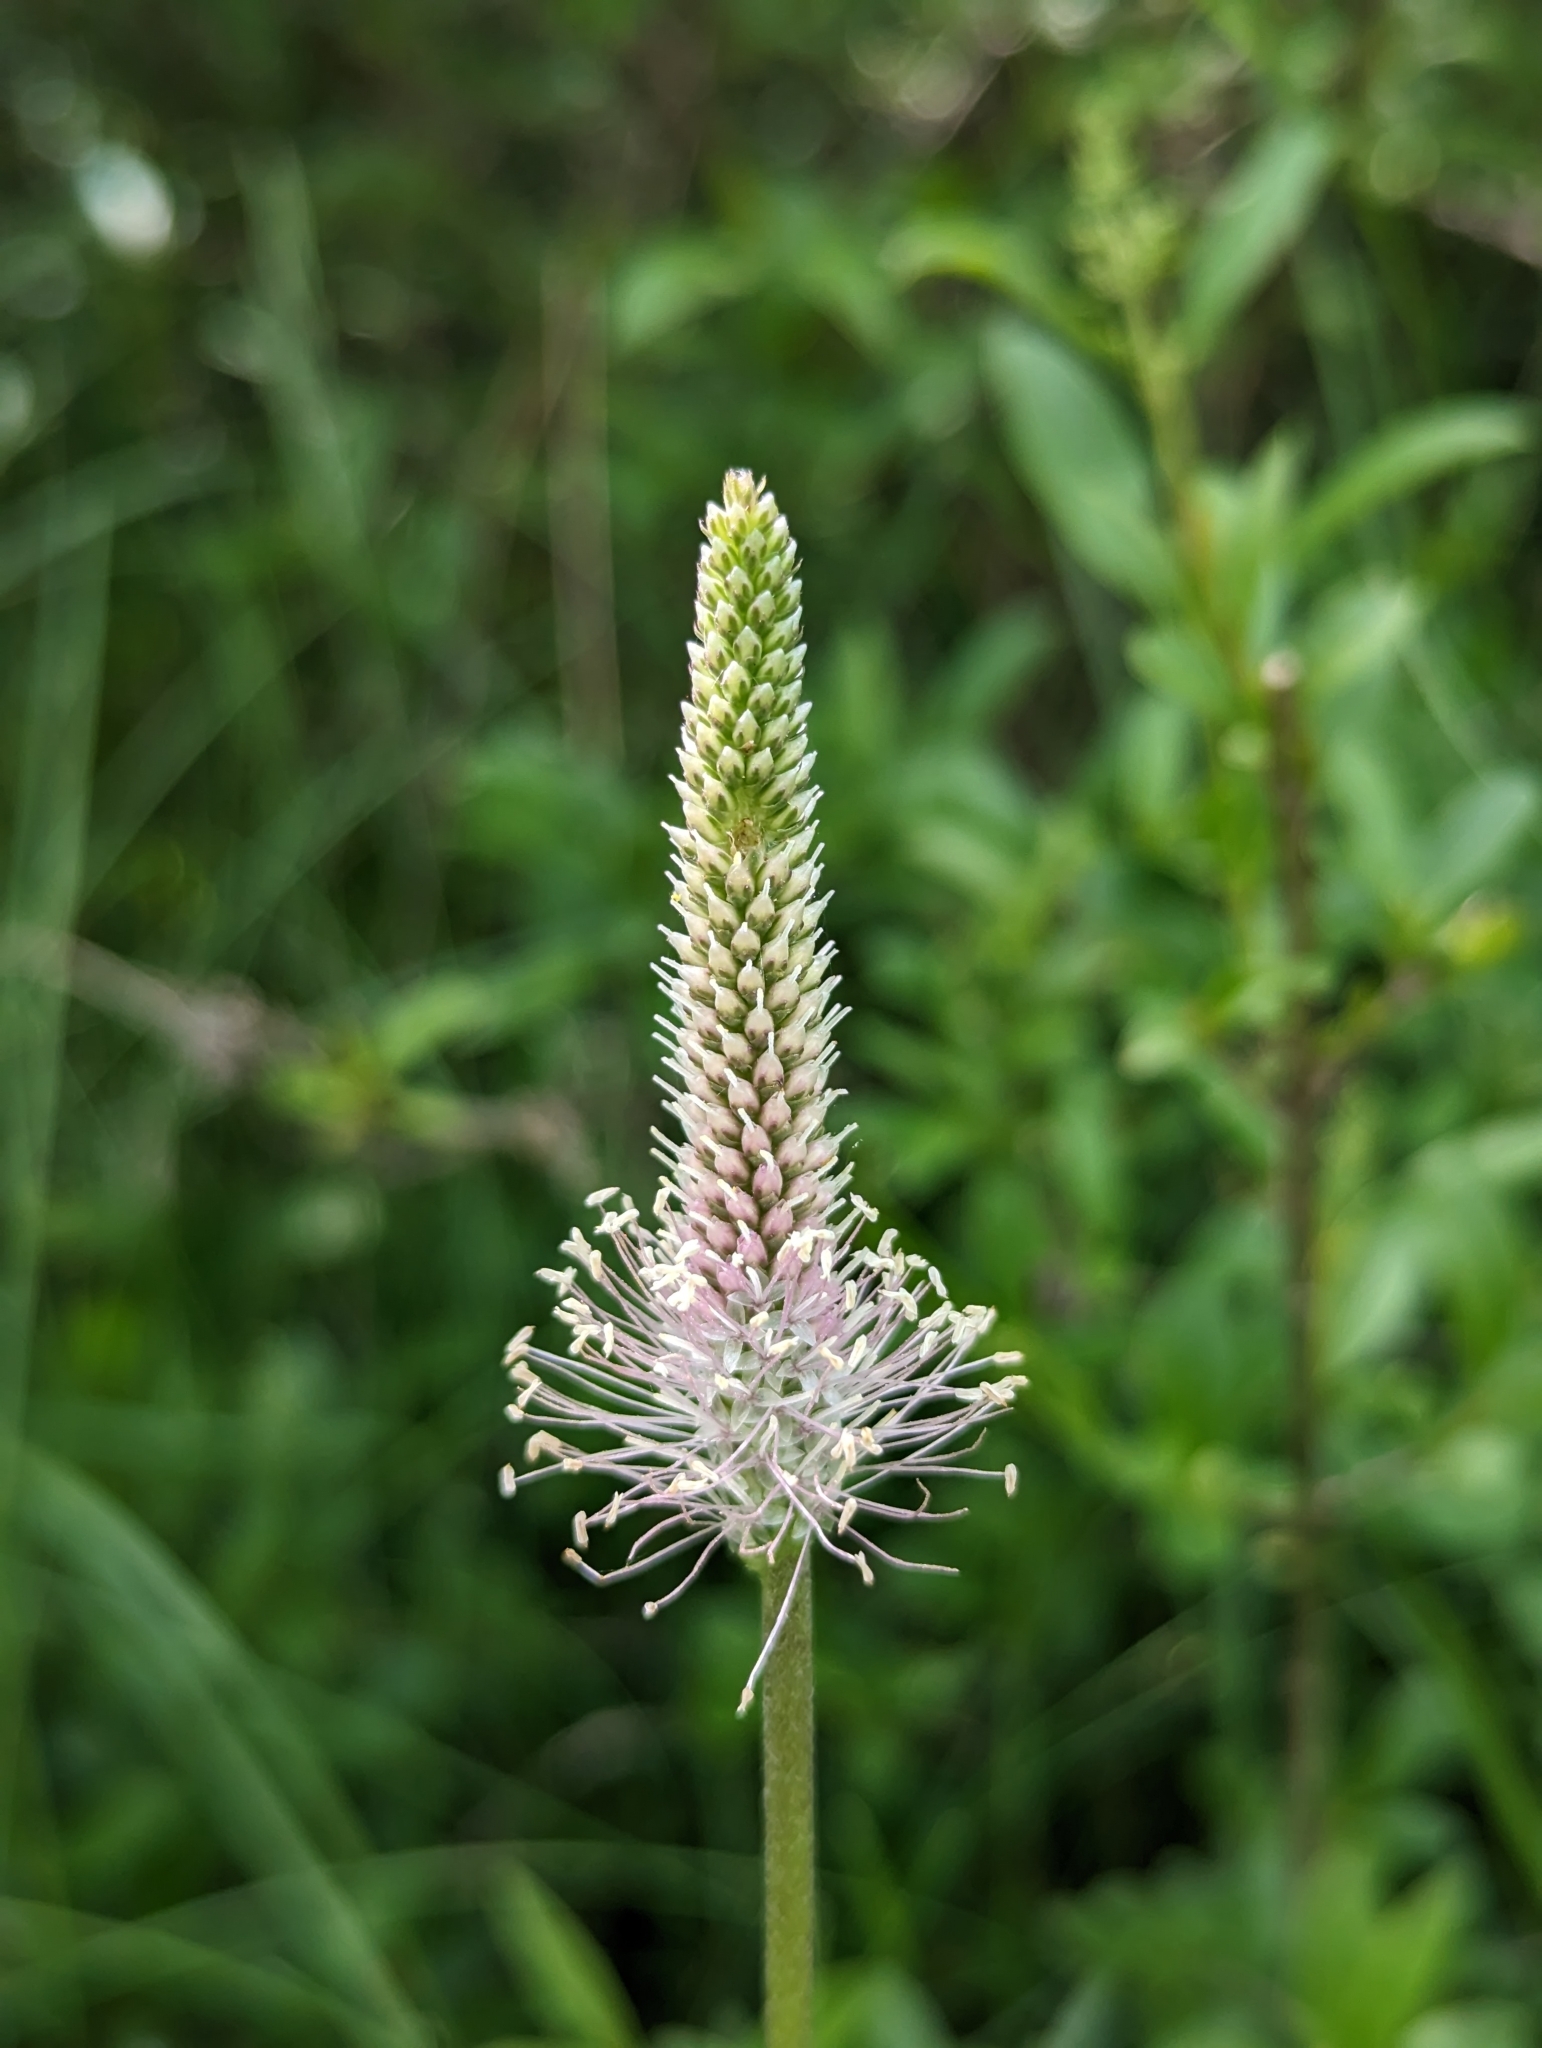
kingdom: Plantae
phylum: Tracheophyta
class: Magnoliopsida
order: Lamiales
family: Plantaginaceae
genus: Plantago
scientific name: Plantago media
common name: Hoary plantain
